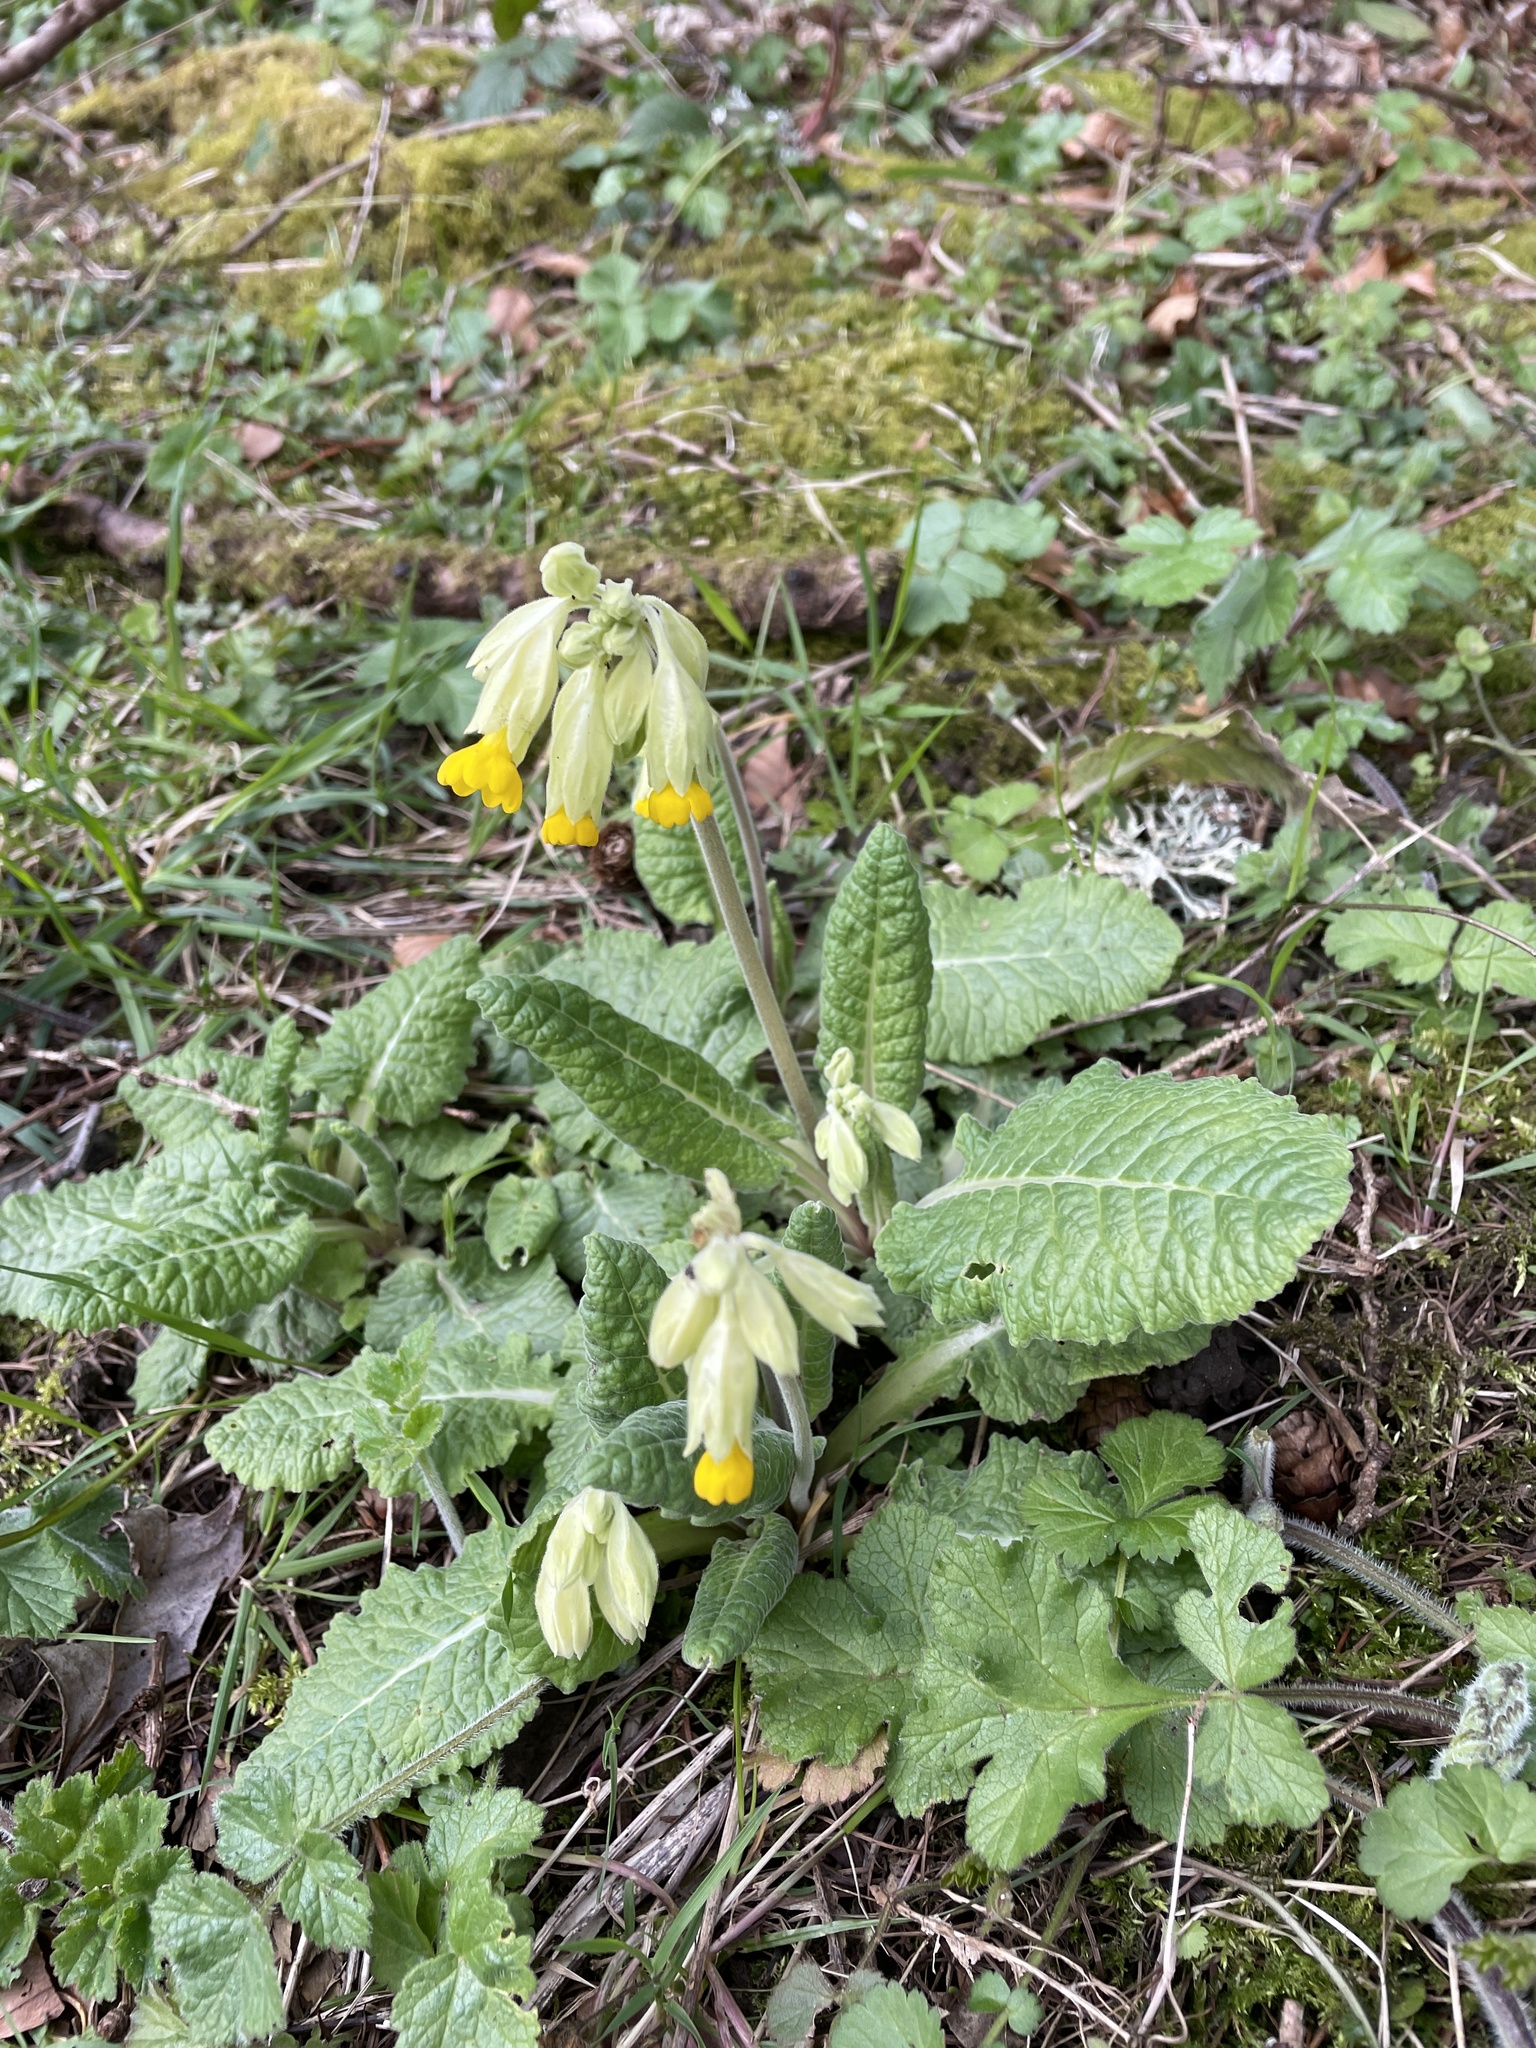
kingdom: Plantae
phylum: Tracheophyta
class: Magnoliopsida
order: Ericales
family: Primulaceae
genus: Primula
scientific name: Primula veris
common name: Cowslip
